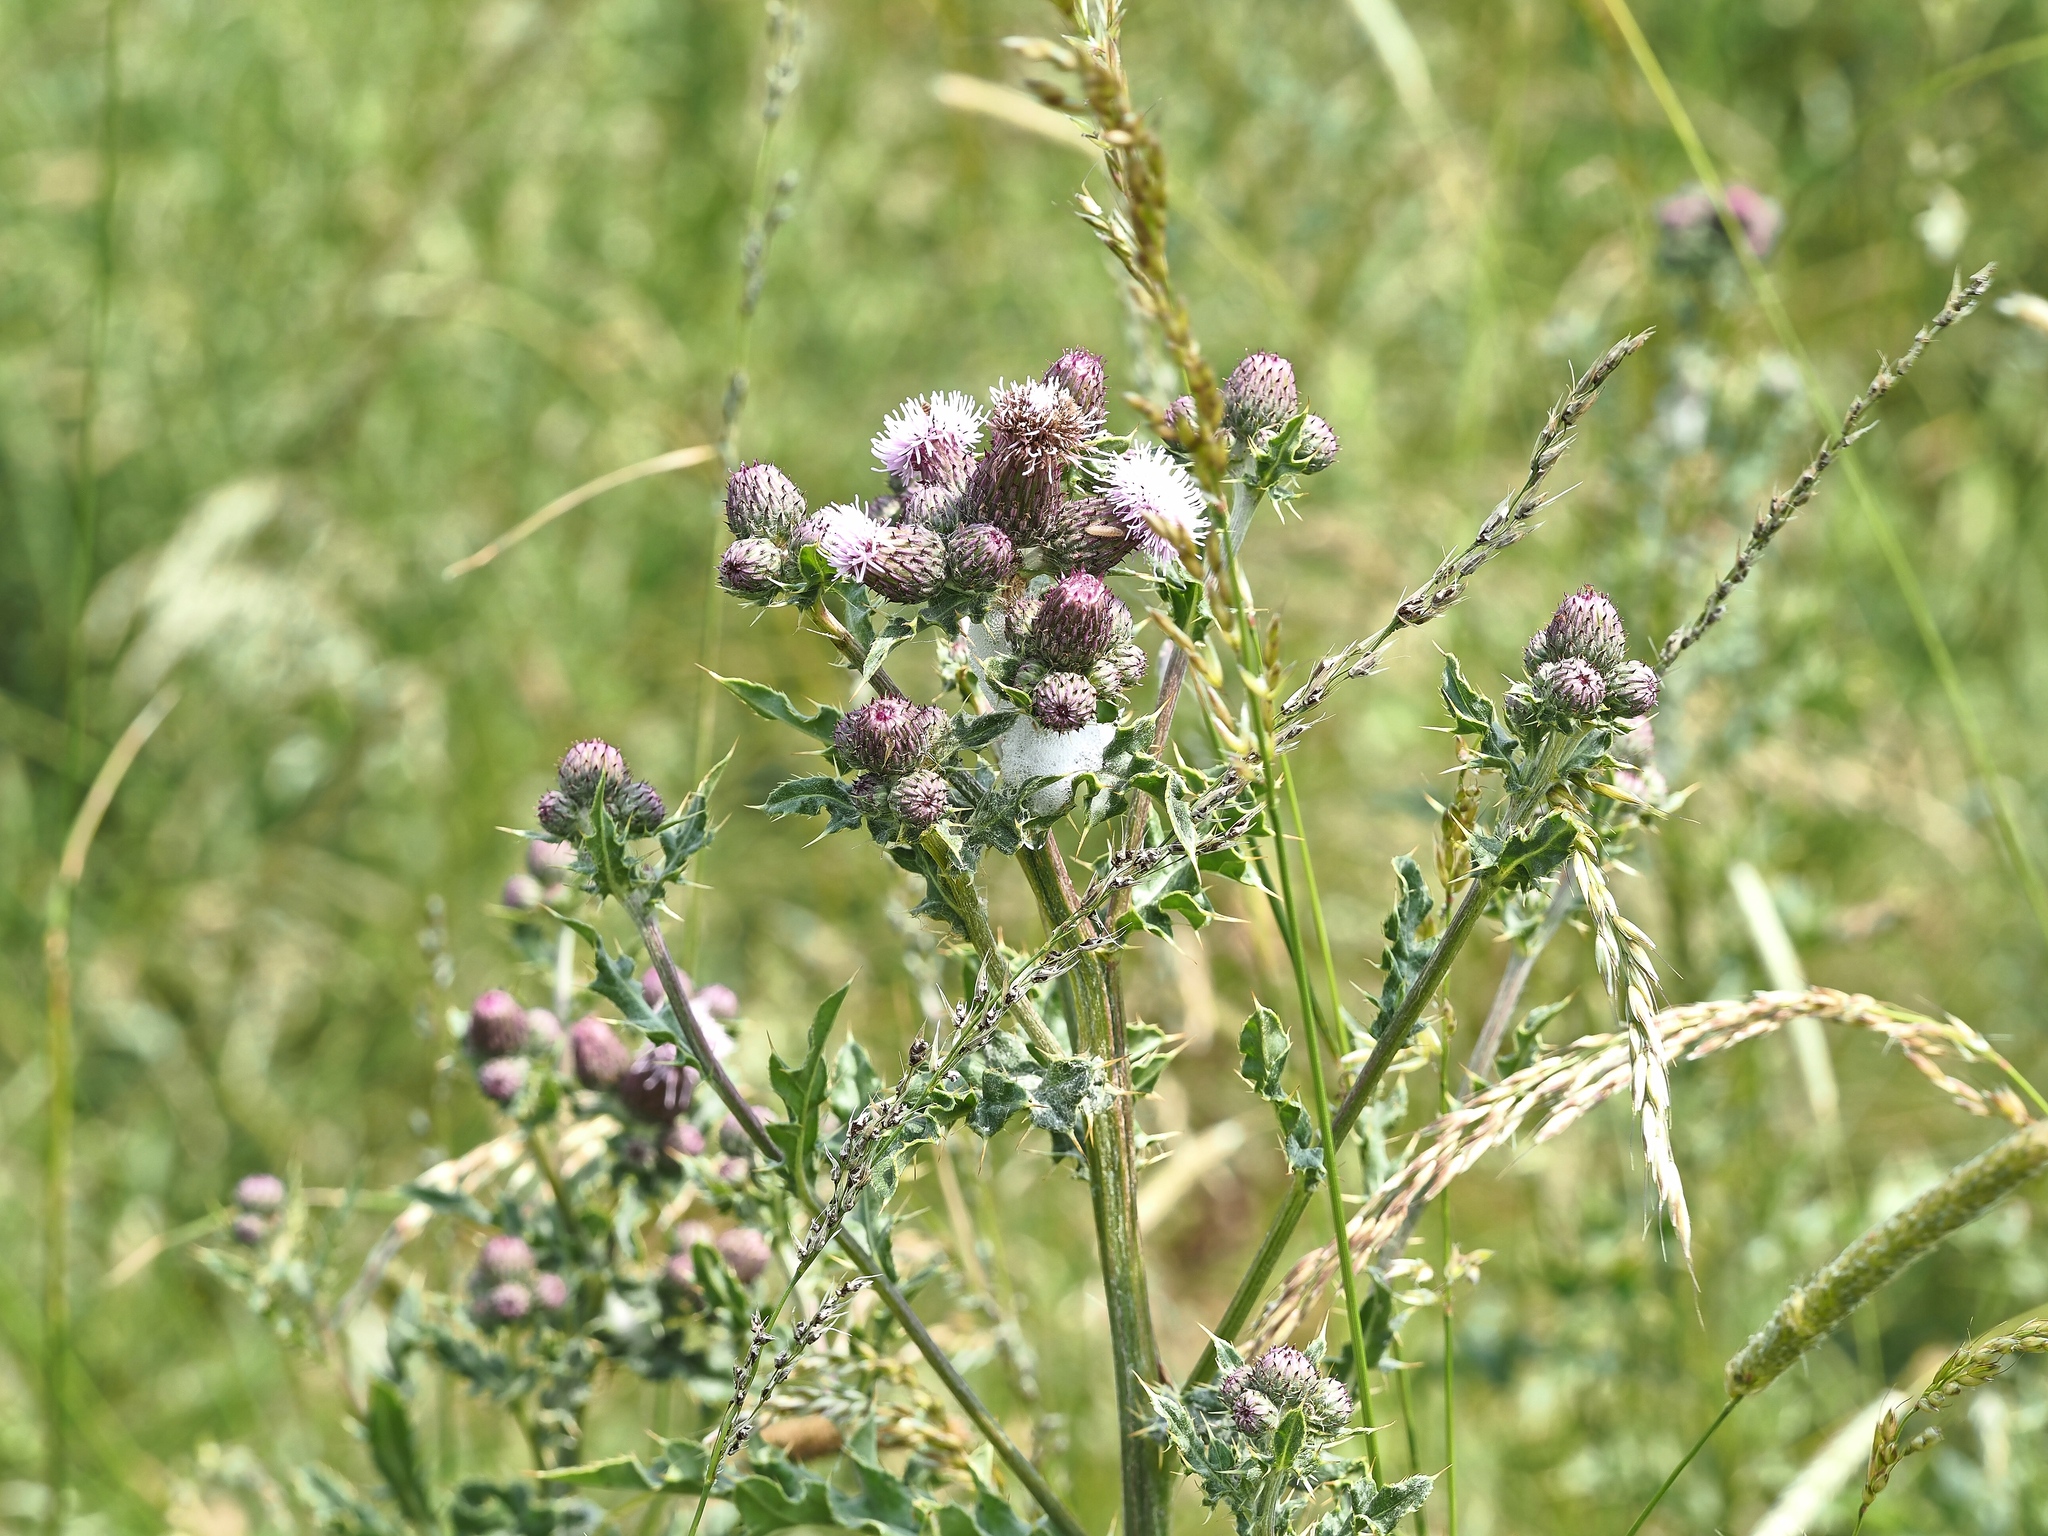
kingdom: Plantae
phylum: Tracheophyta
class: Magnoliopsida
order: Asterales
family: Asteraceae
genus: Cirsium
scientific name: Cirsium arvense
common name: Creeping thistle
